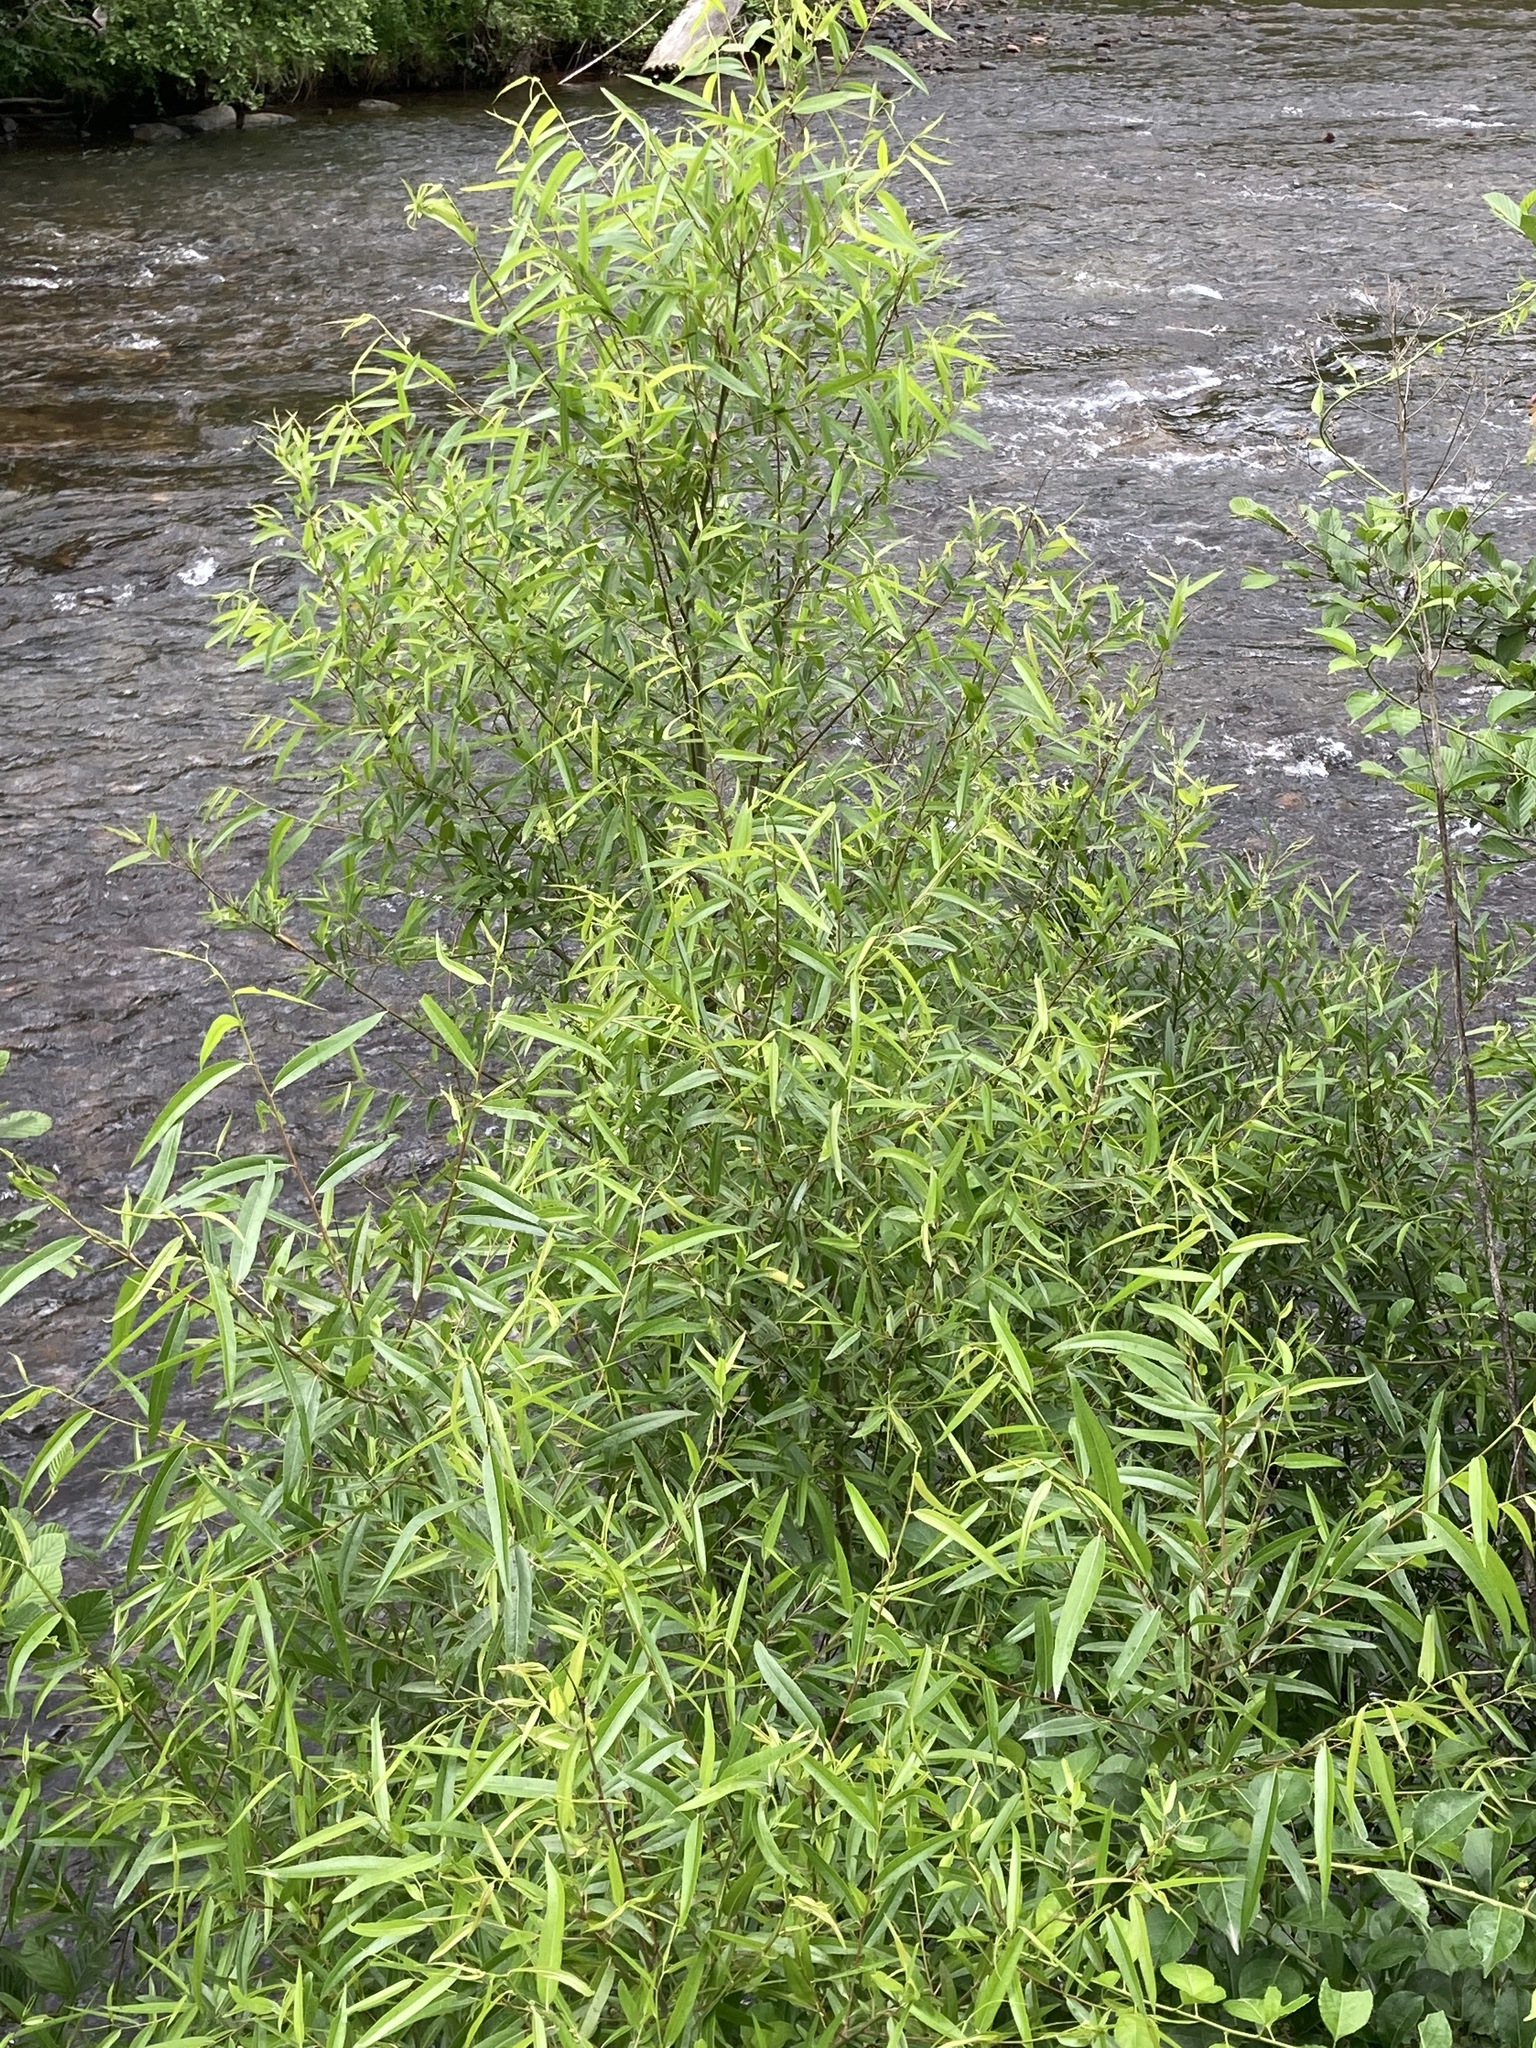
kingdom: Plantae
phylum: Tracheophyta
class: Magnoliopsida
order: Malpighiales
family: Salicaceae
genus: Salix
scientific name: Salix nigra
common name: Black willow
